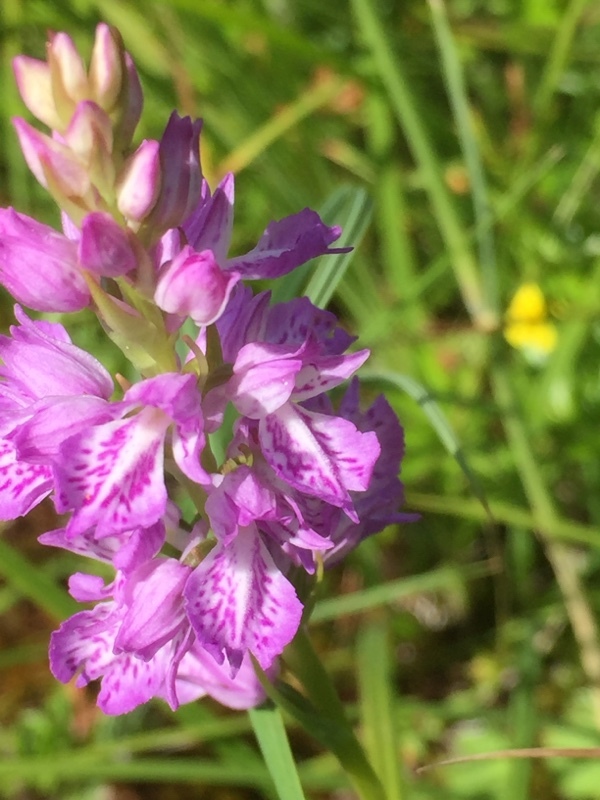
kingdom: Plantae
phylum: Tracheophyta
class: Liliopsida
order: Asparagales
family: Orchidaceae
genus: Dactylorhiza
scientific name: Dactylorhiza maculata
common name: Heath spotted-orchid
